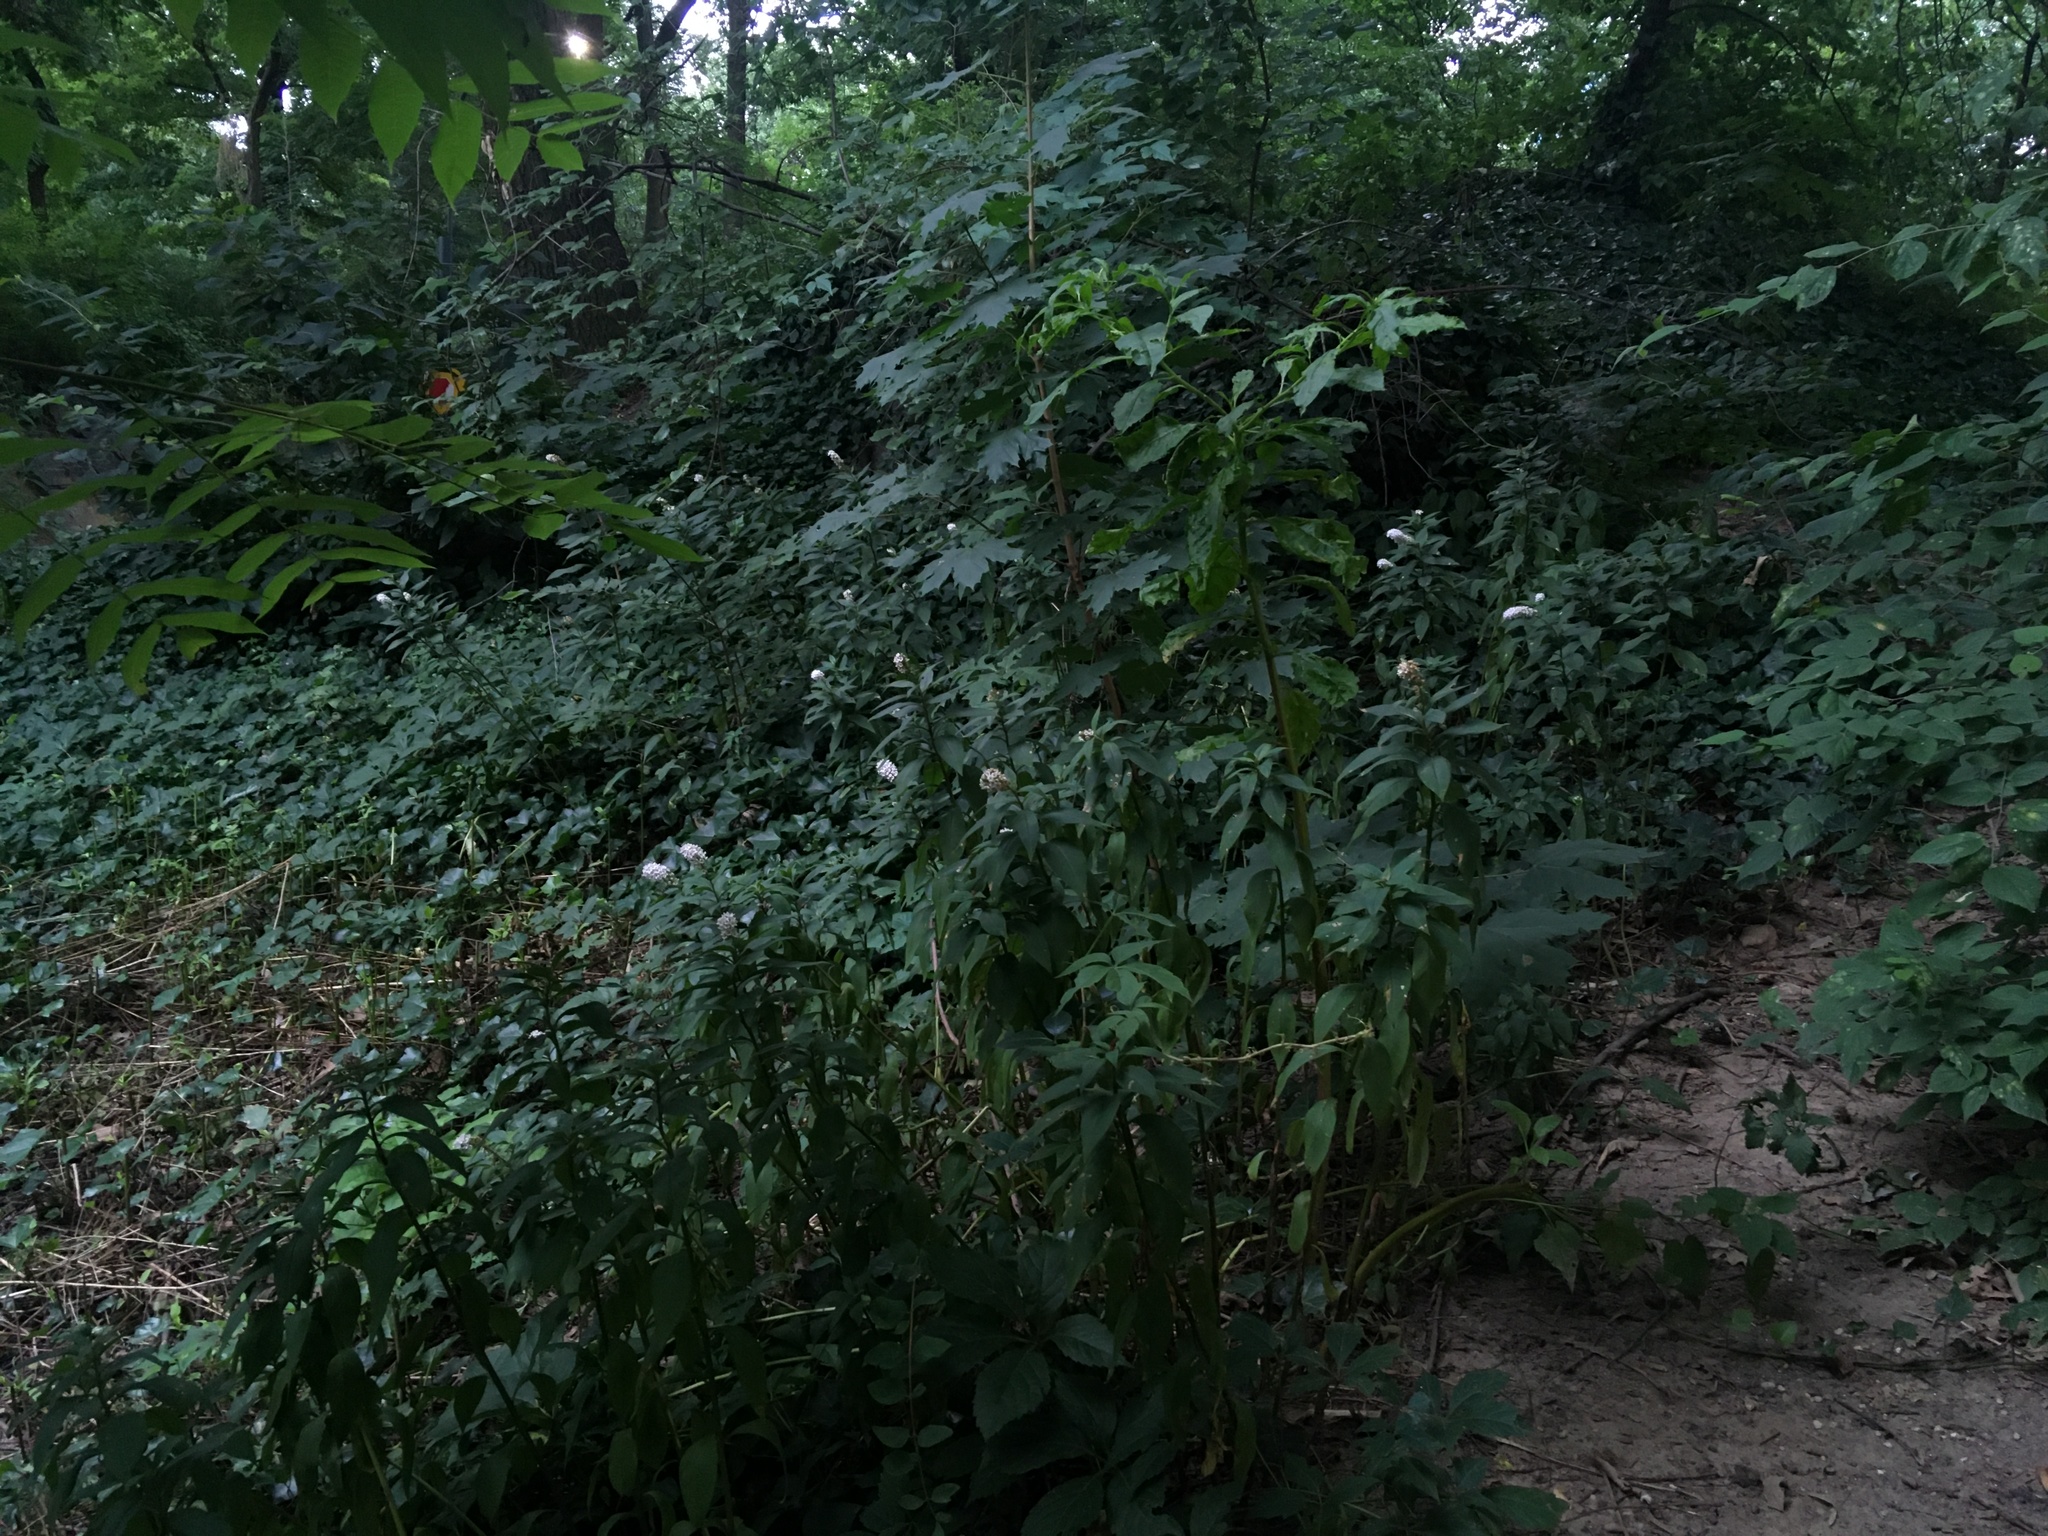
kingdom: Plantae
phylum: Tracheophyta
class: Magnoliopsida
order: Ericales
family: Primulaceae
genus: Lysimachia
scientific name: Lysimachia clethroides
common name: Gooseneck loosestrife
